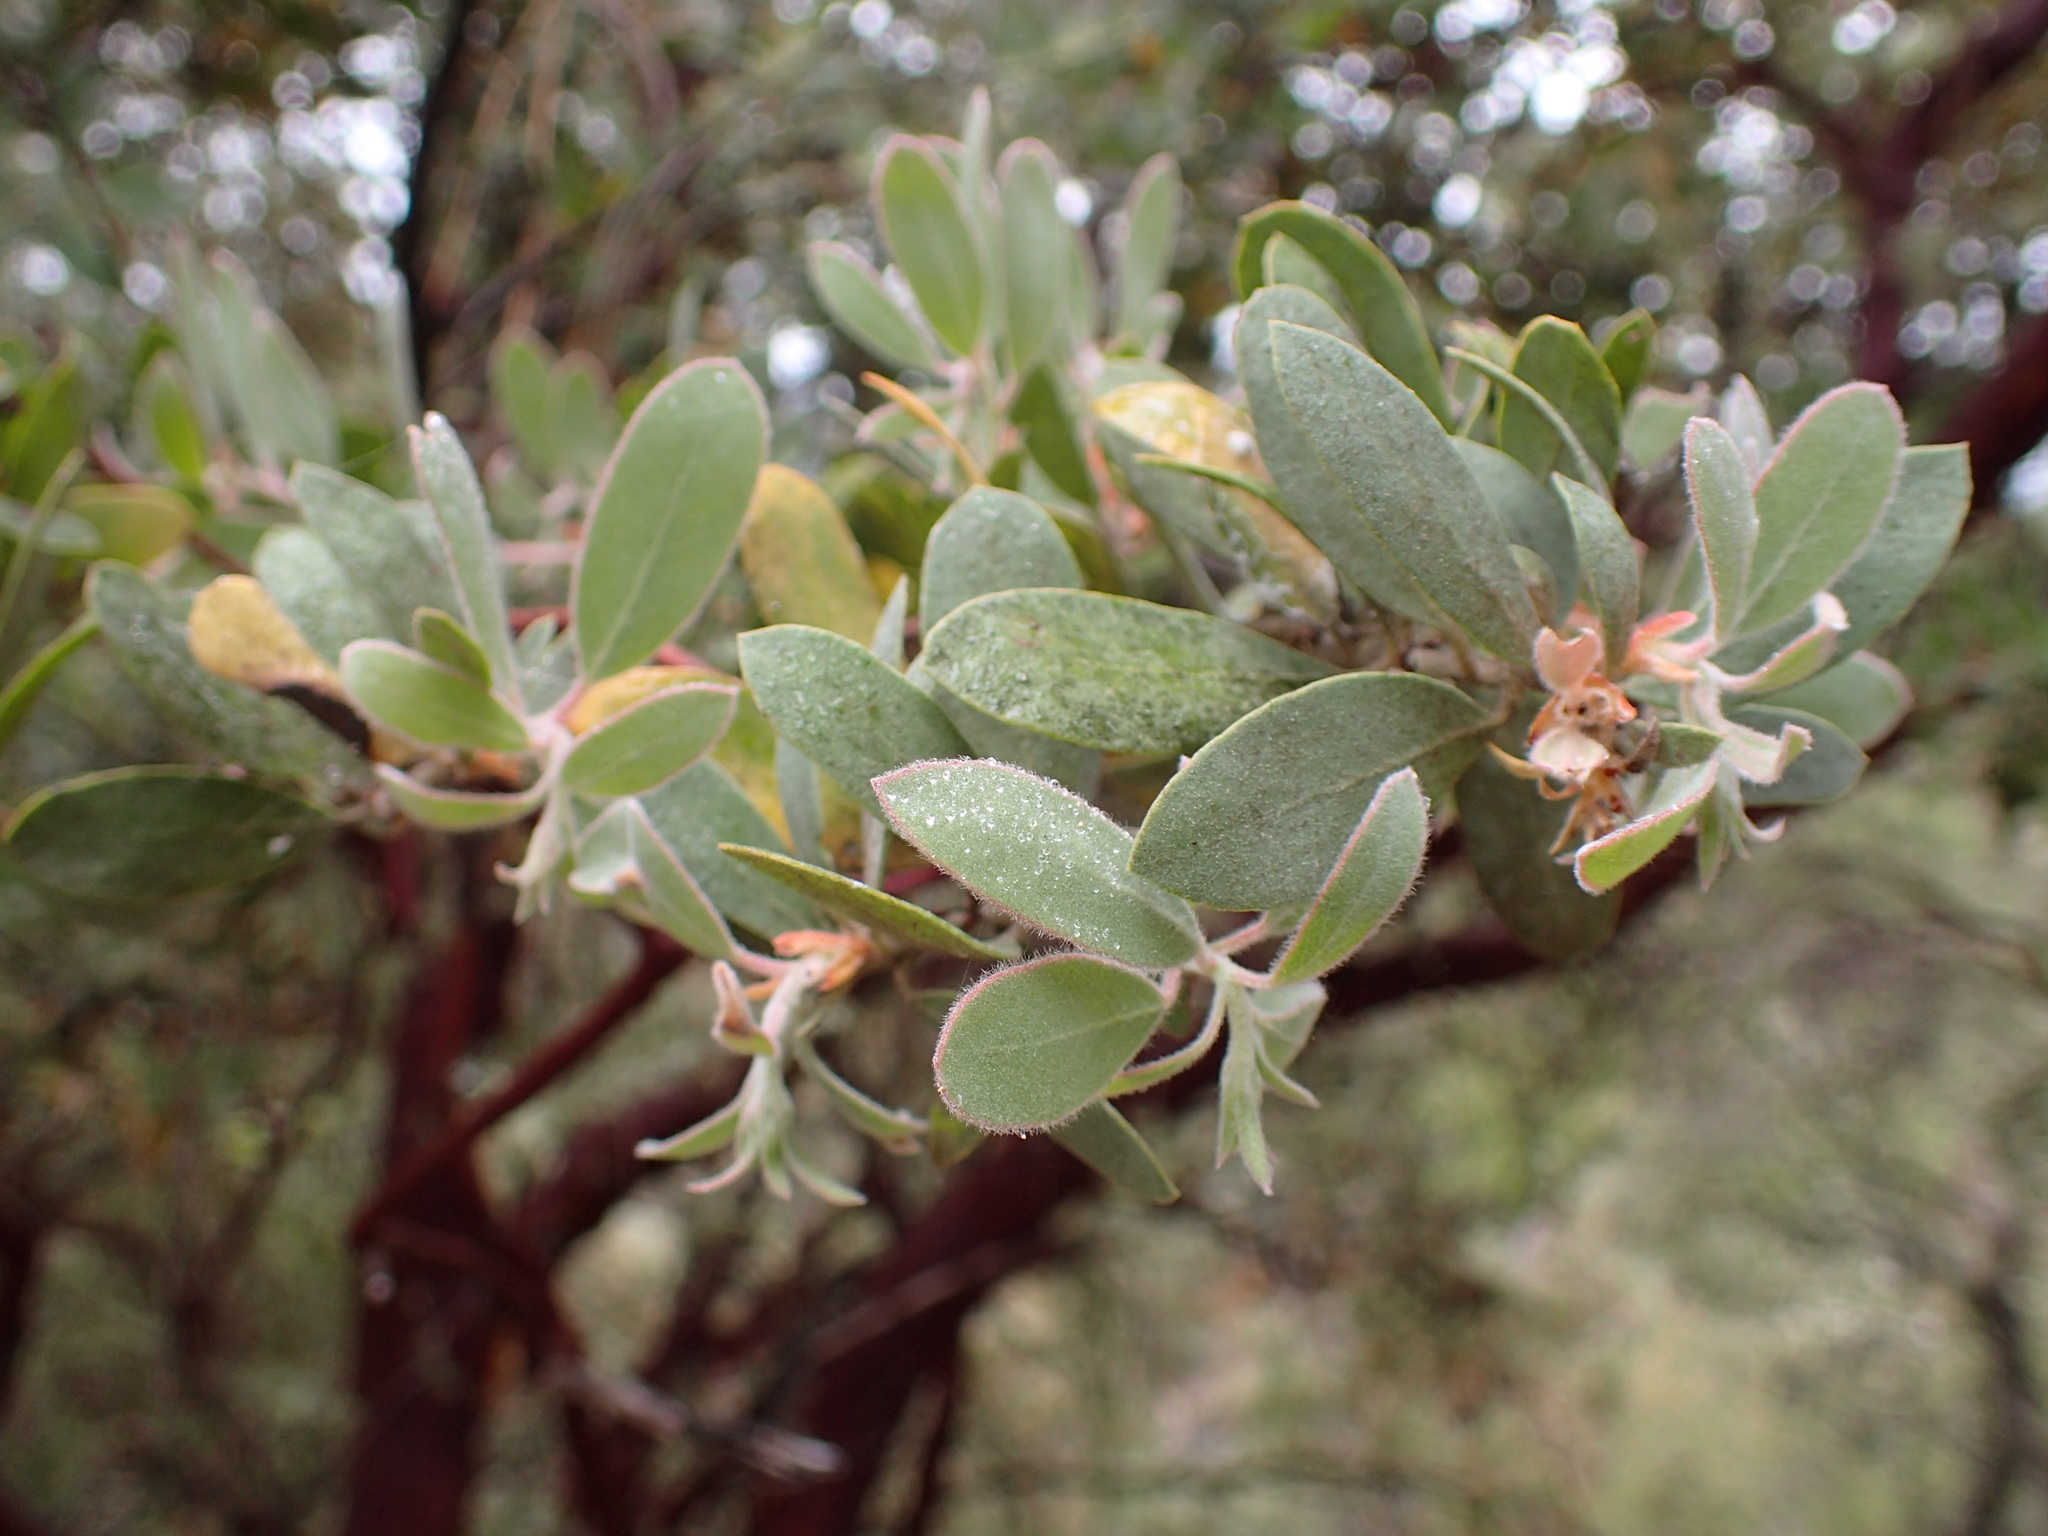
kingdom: Plantae
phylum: Tracheophyta
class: Magnoliopsida
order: Ericales
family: Ericaceae
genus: Arctostaphylos
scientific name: Arctostaphylos silvicola
